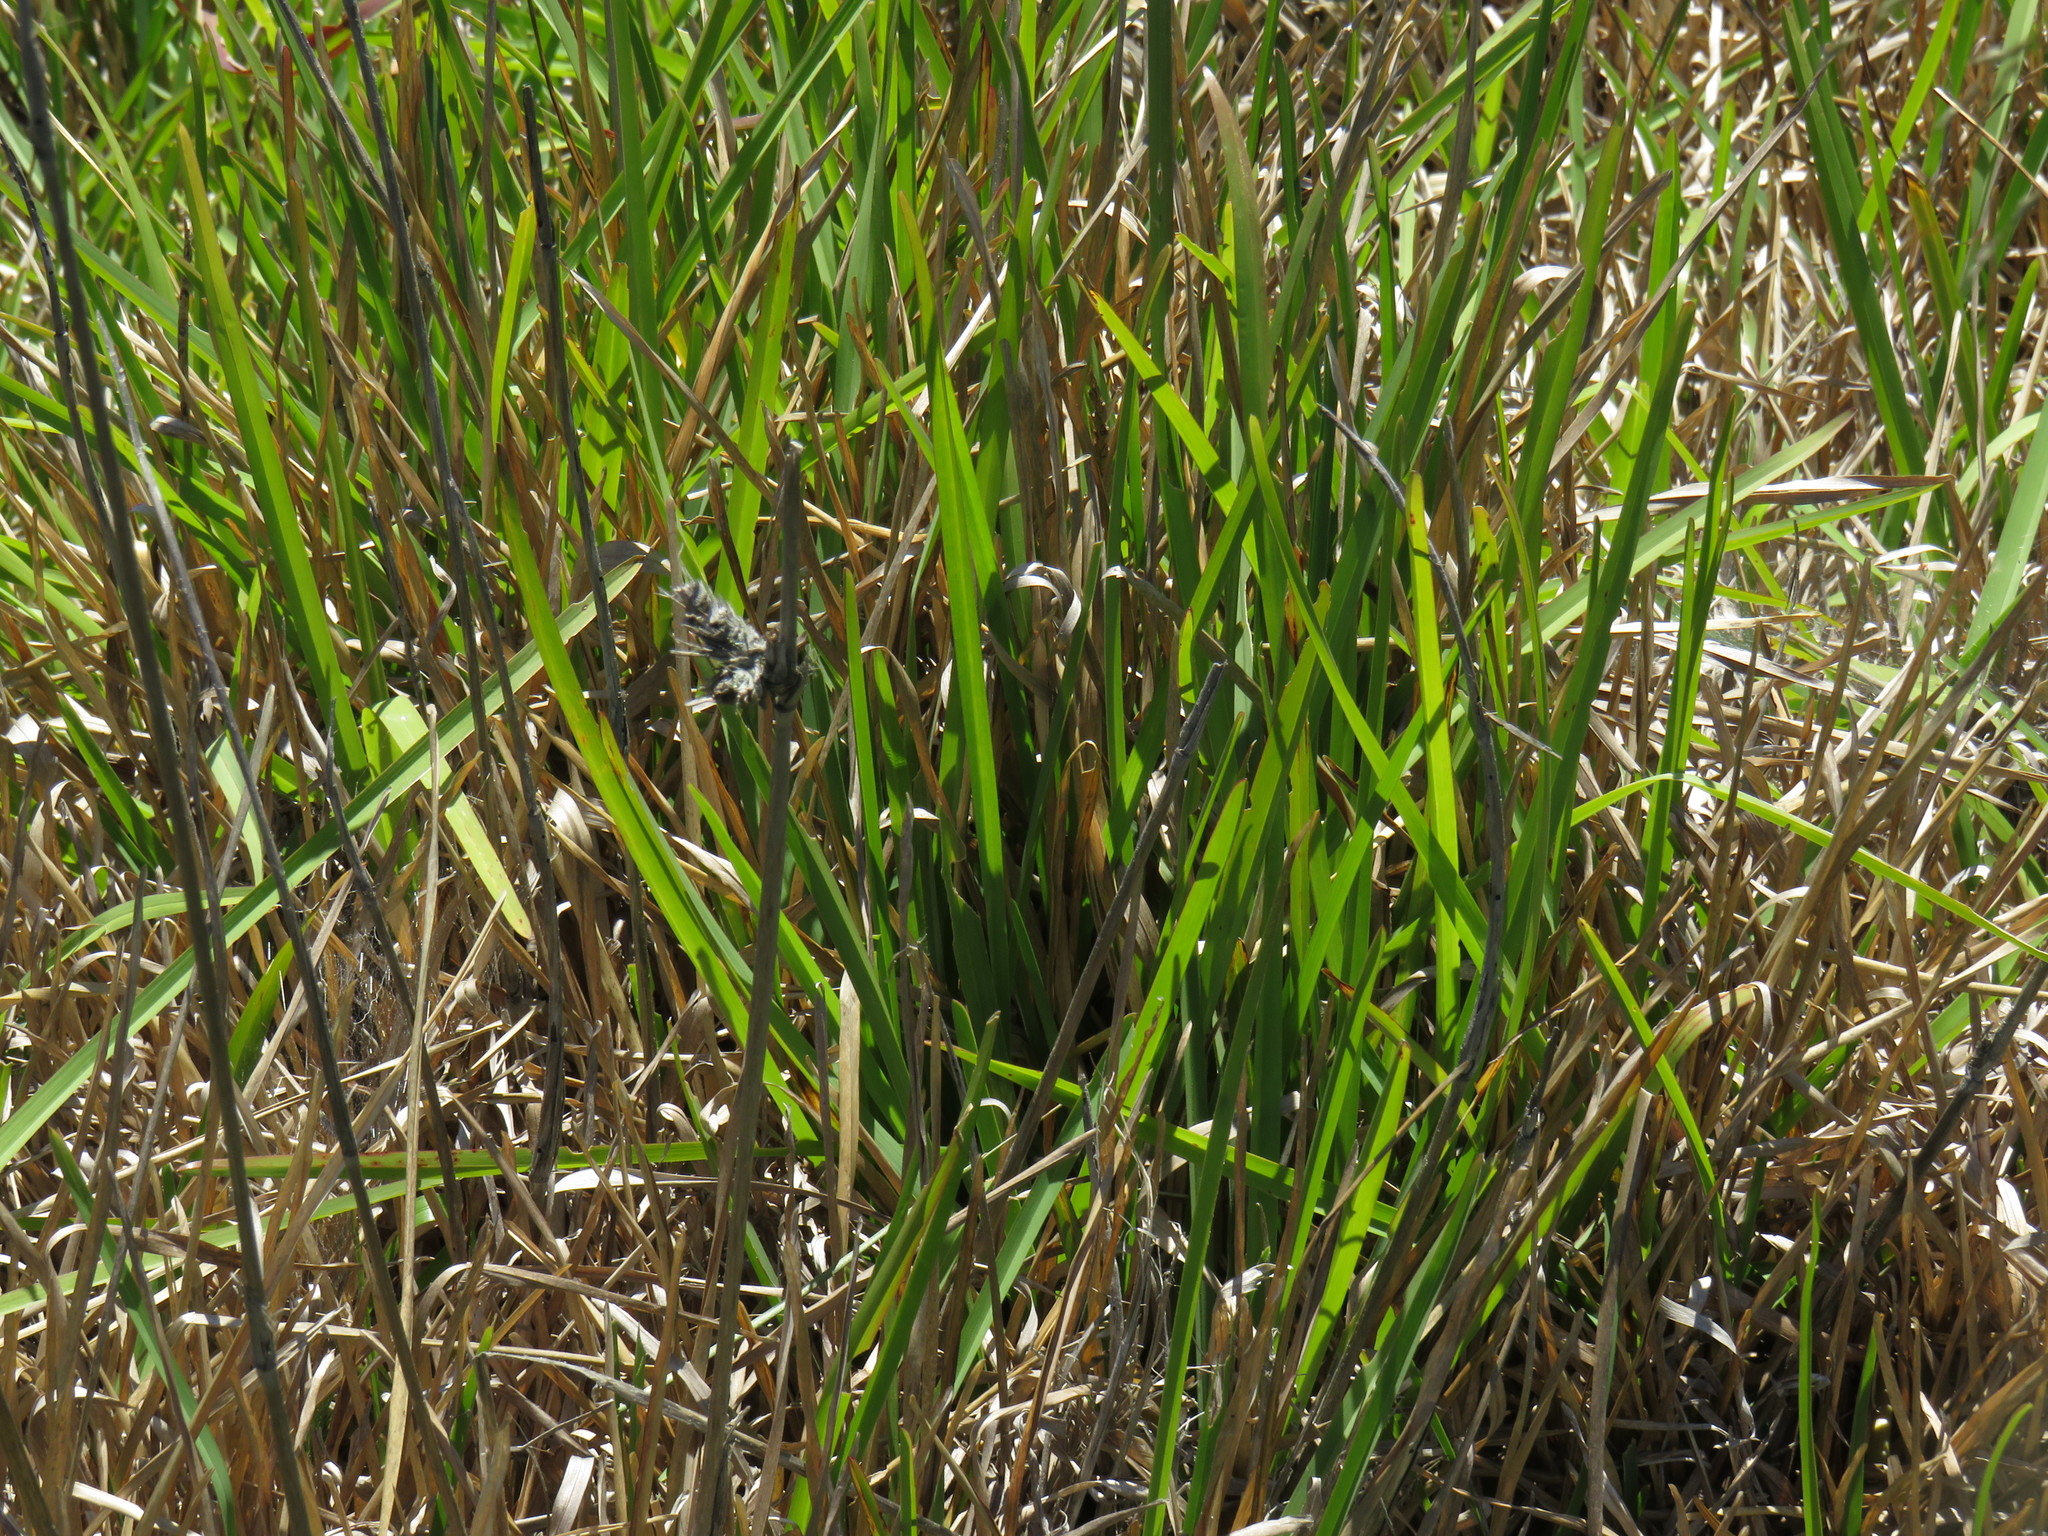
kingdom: Plantae
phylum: Tracheophyta
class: Liliopsida
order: Poales
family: Poaceae
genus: Stenotaphrum
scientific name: Stenotaphrum secundatum
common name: St. augustine grass
